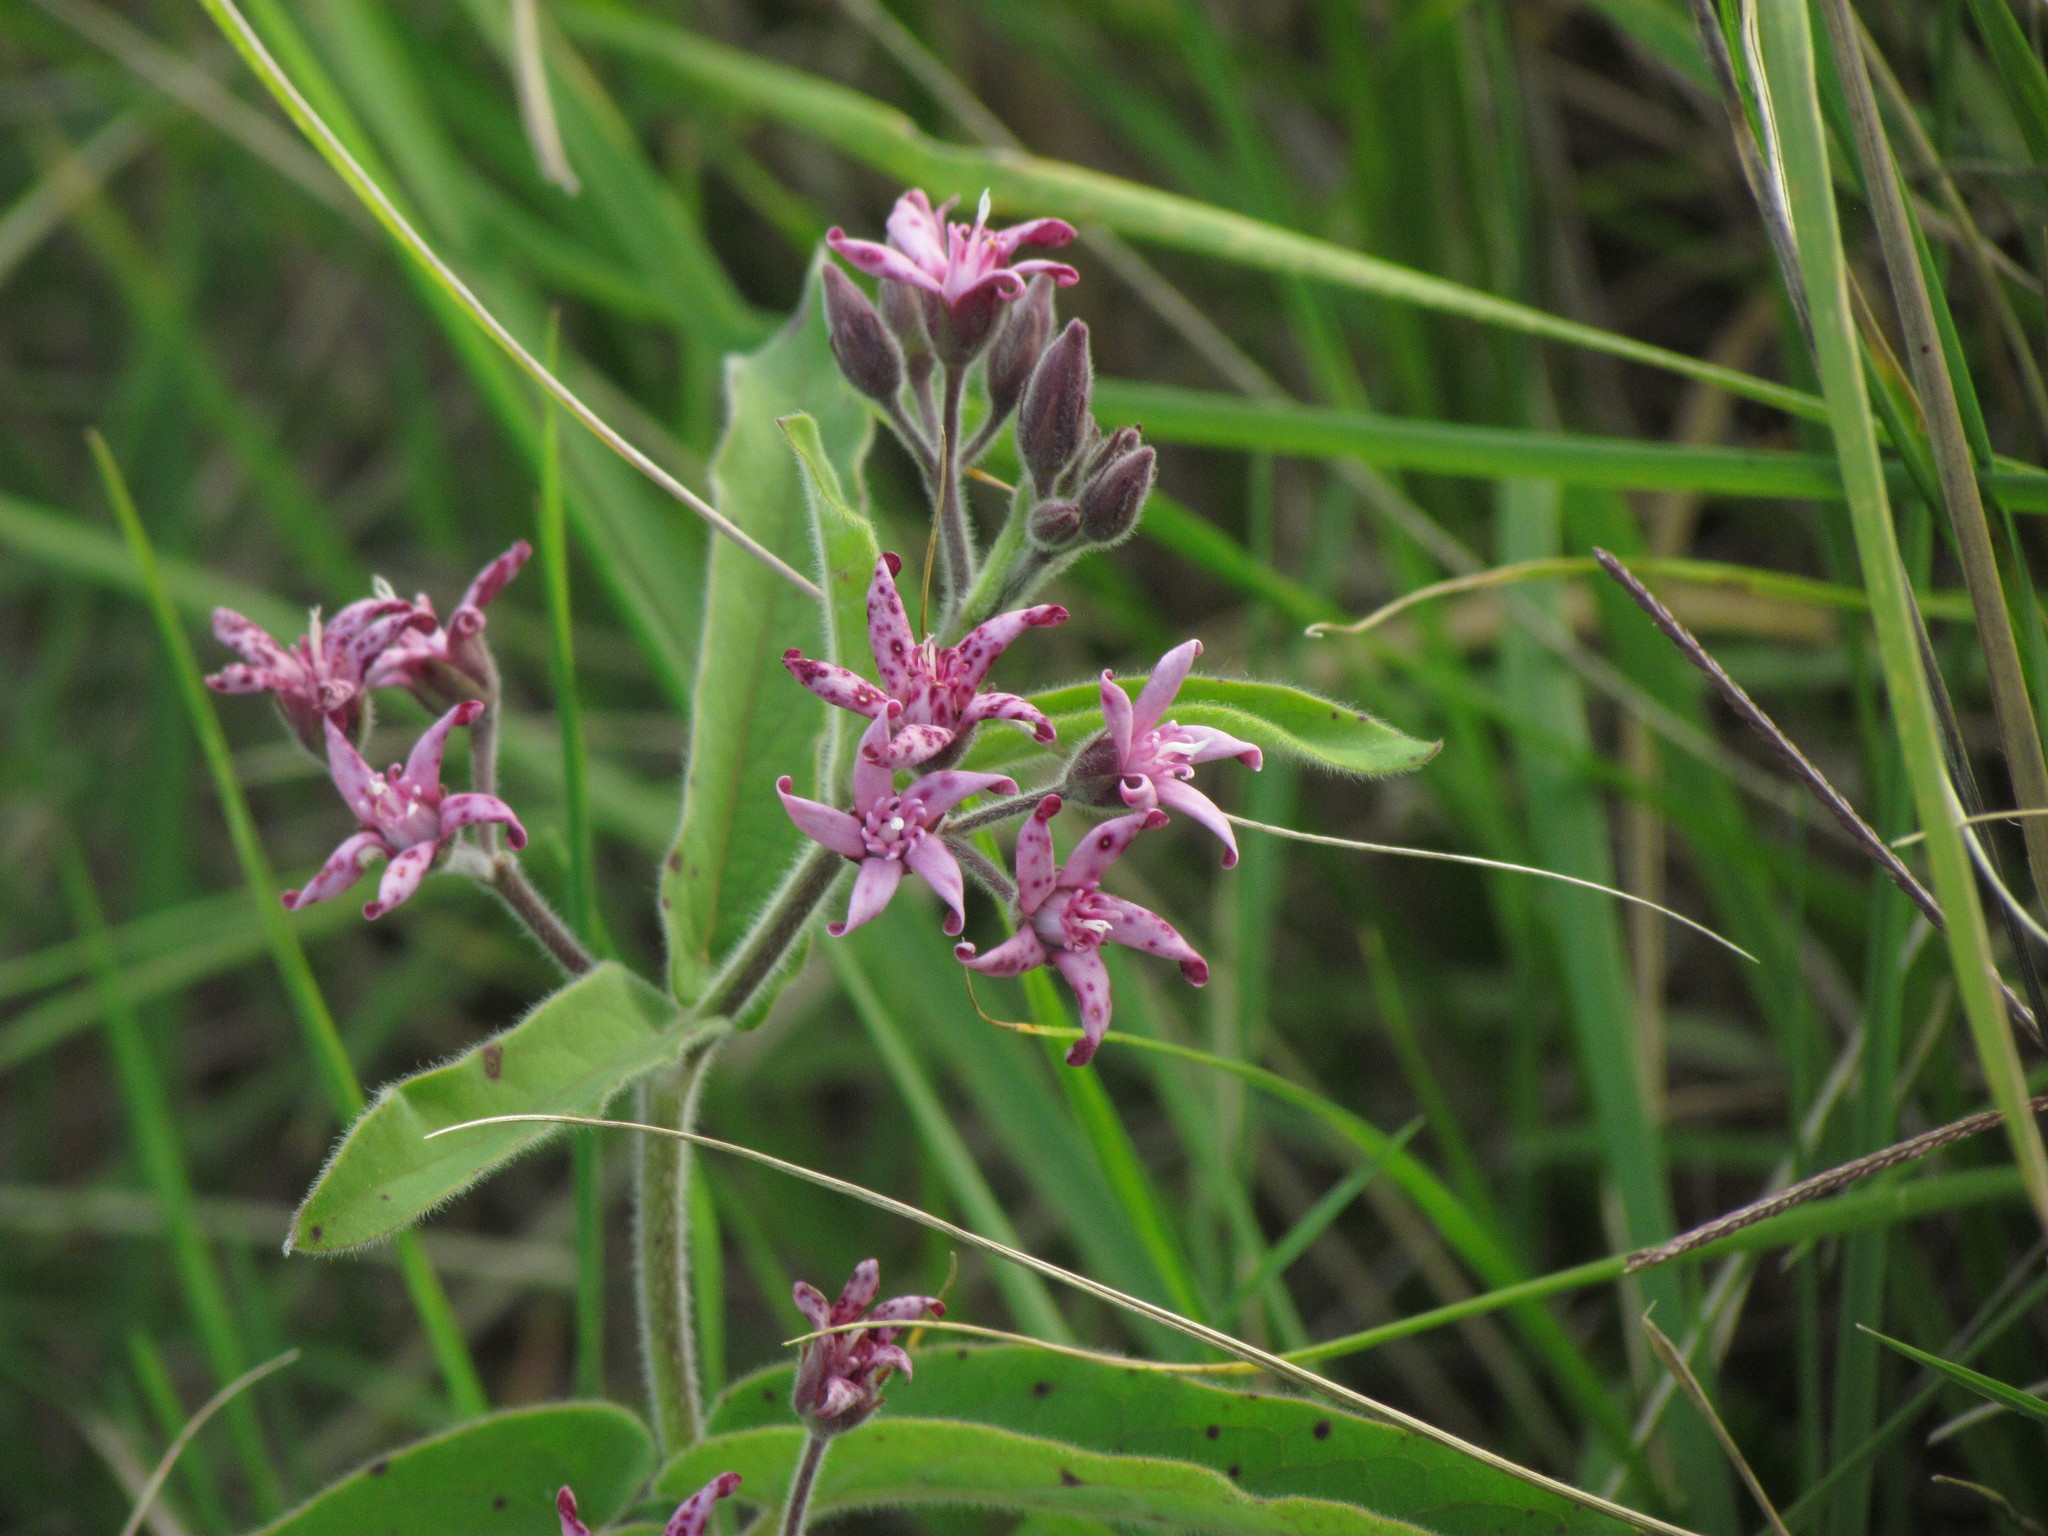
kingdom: Plantae
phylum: Tracheophyta
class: Magnoliopsida
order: Gentianales
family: Apocynaceae
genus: Oxypetalum
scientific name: Oxypetalum solanoides
